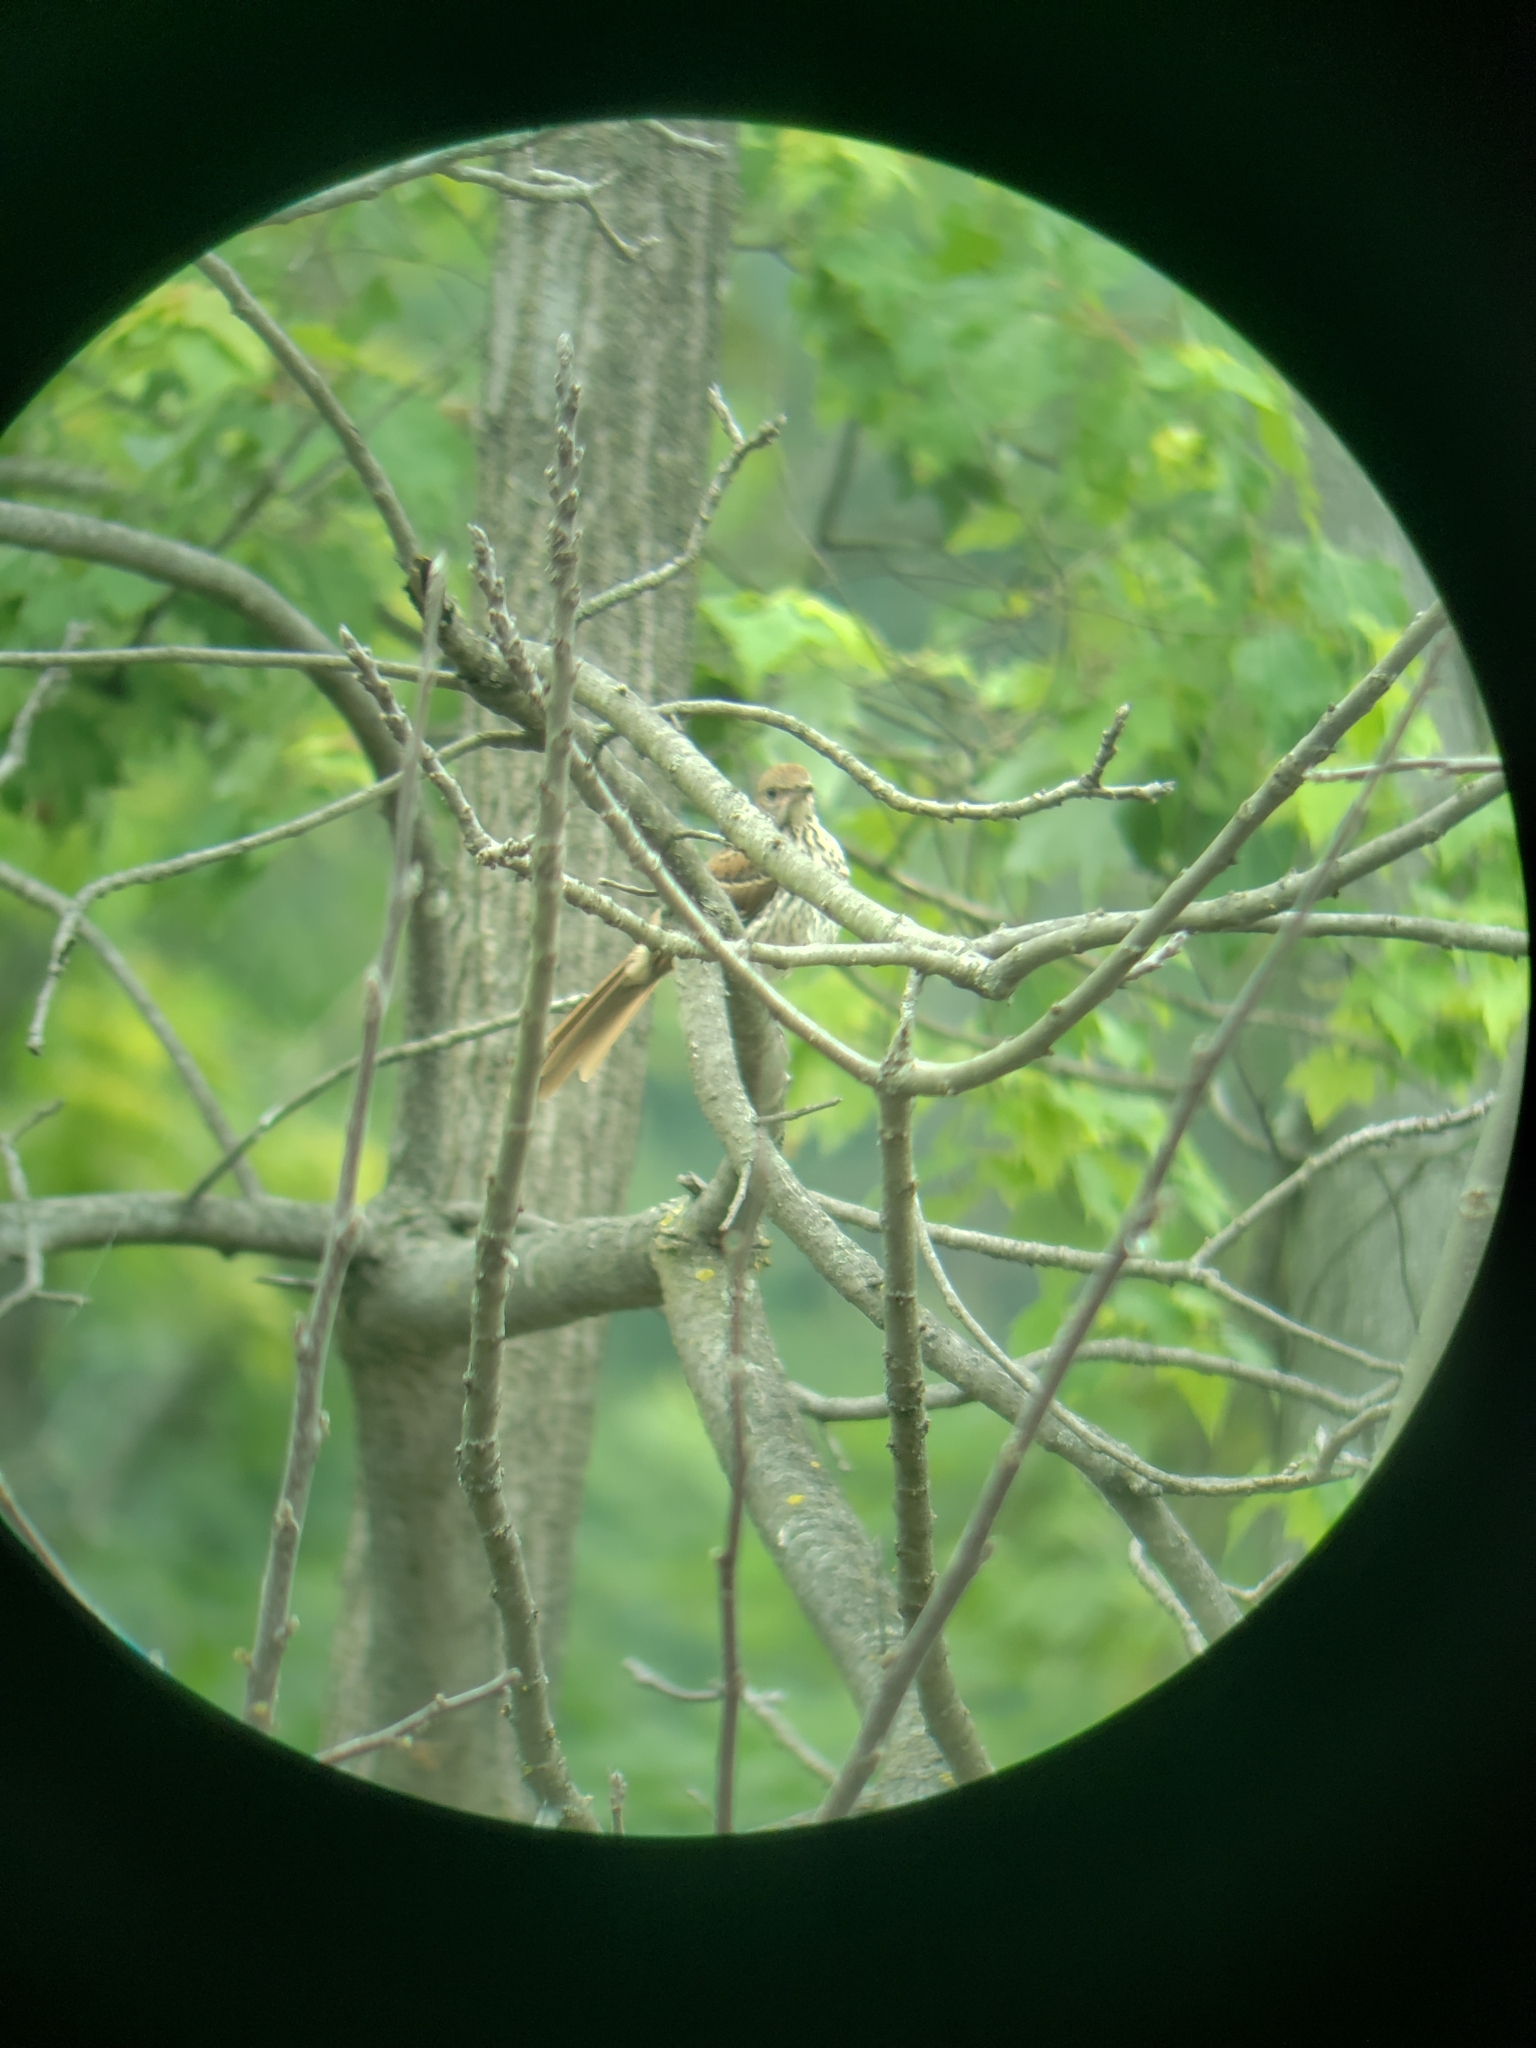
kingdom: Animalia
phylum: Chordata
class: Aves
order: Passeriformes
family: Mimidae
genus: Toxostoma
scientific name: Toxostoma rufum
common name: Brown thrasher
